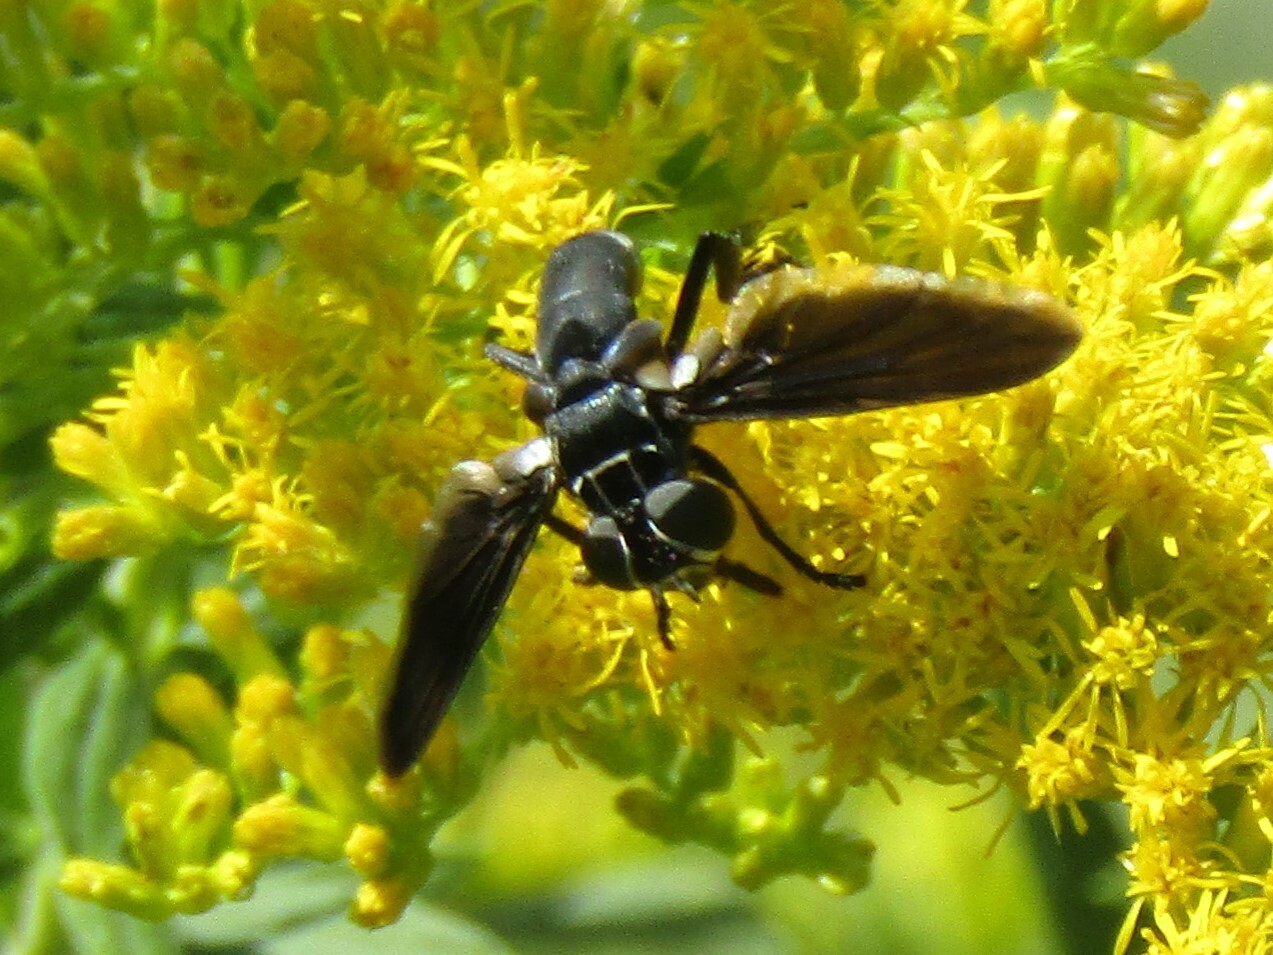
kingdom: Animalia
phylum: Arthropoda
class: Insecta
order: Diptera
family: Tachinidae
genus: Trichopoda
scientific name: Trichopoda lanipes
